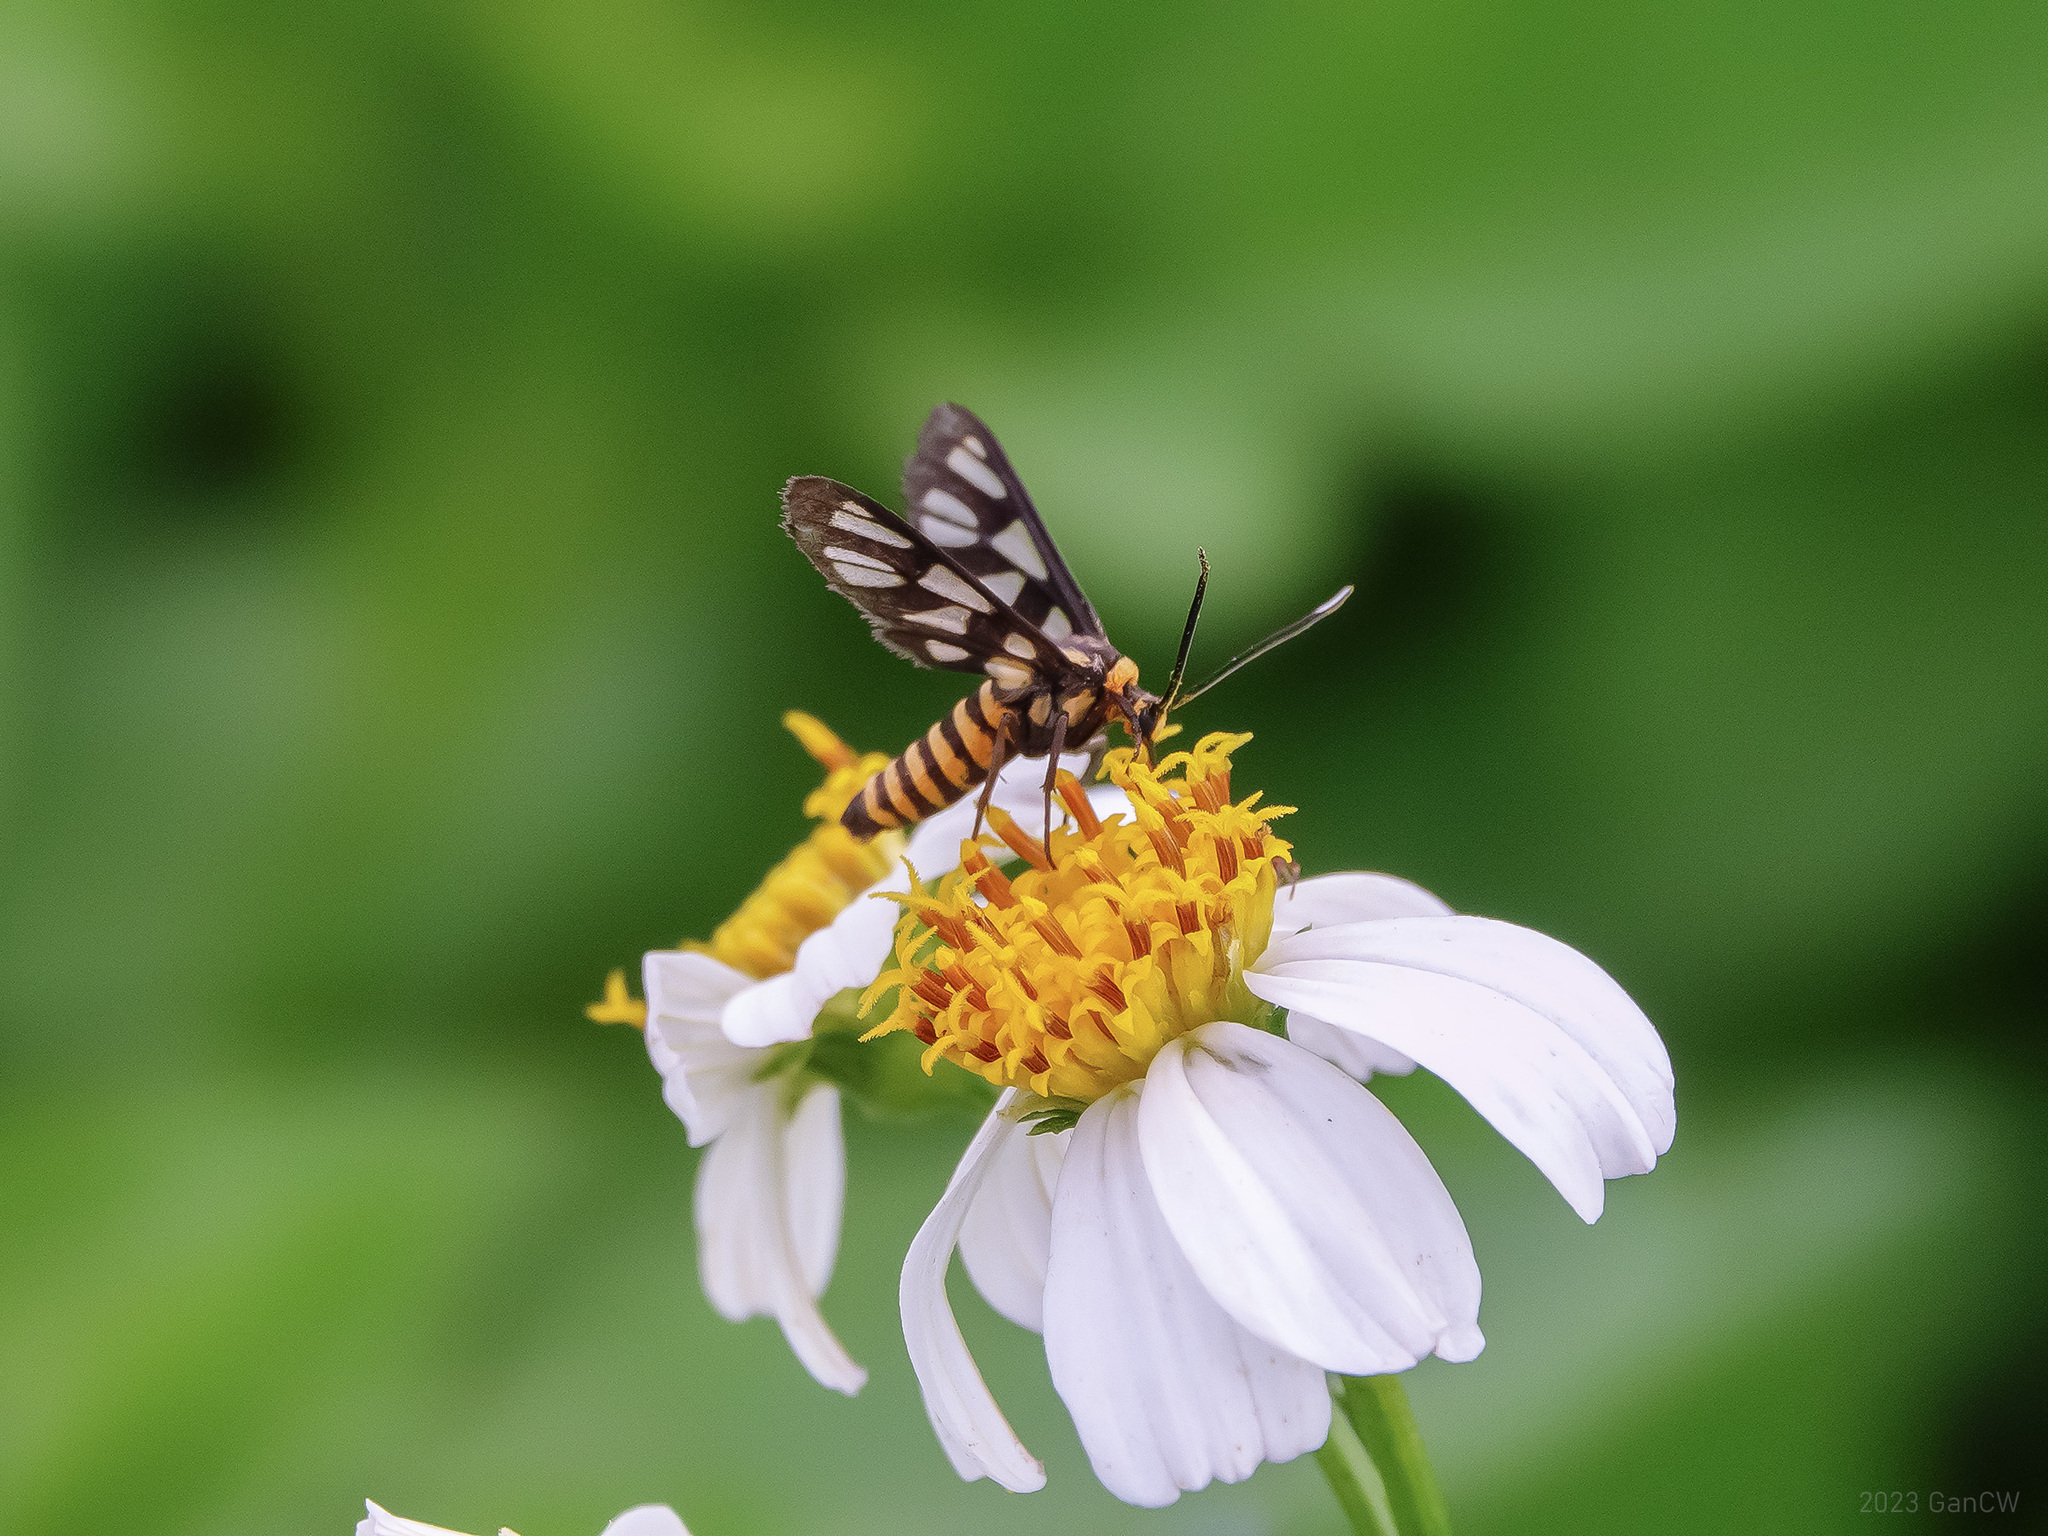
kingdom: Animalia
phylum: Arthropoda
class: Insecta
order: Lepidoptera
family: Erebidae
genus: Amata
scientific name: Amata huebneri
